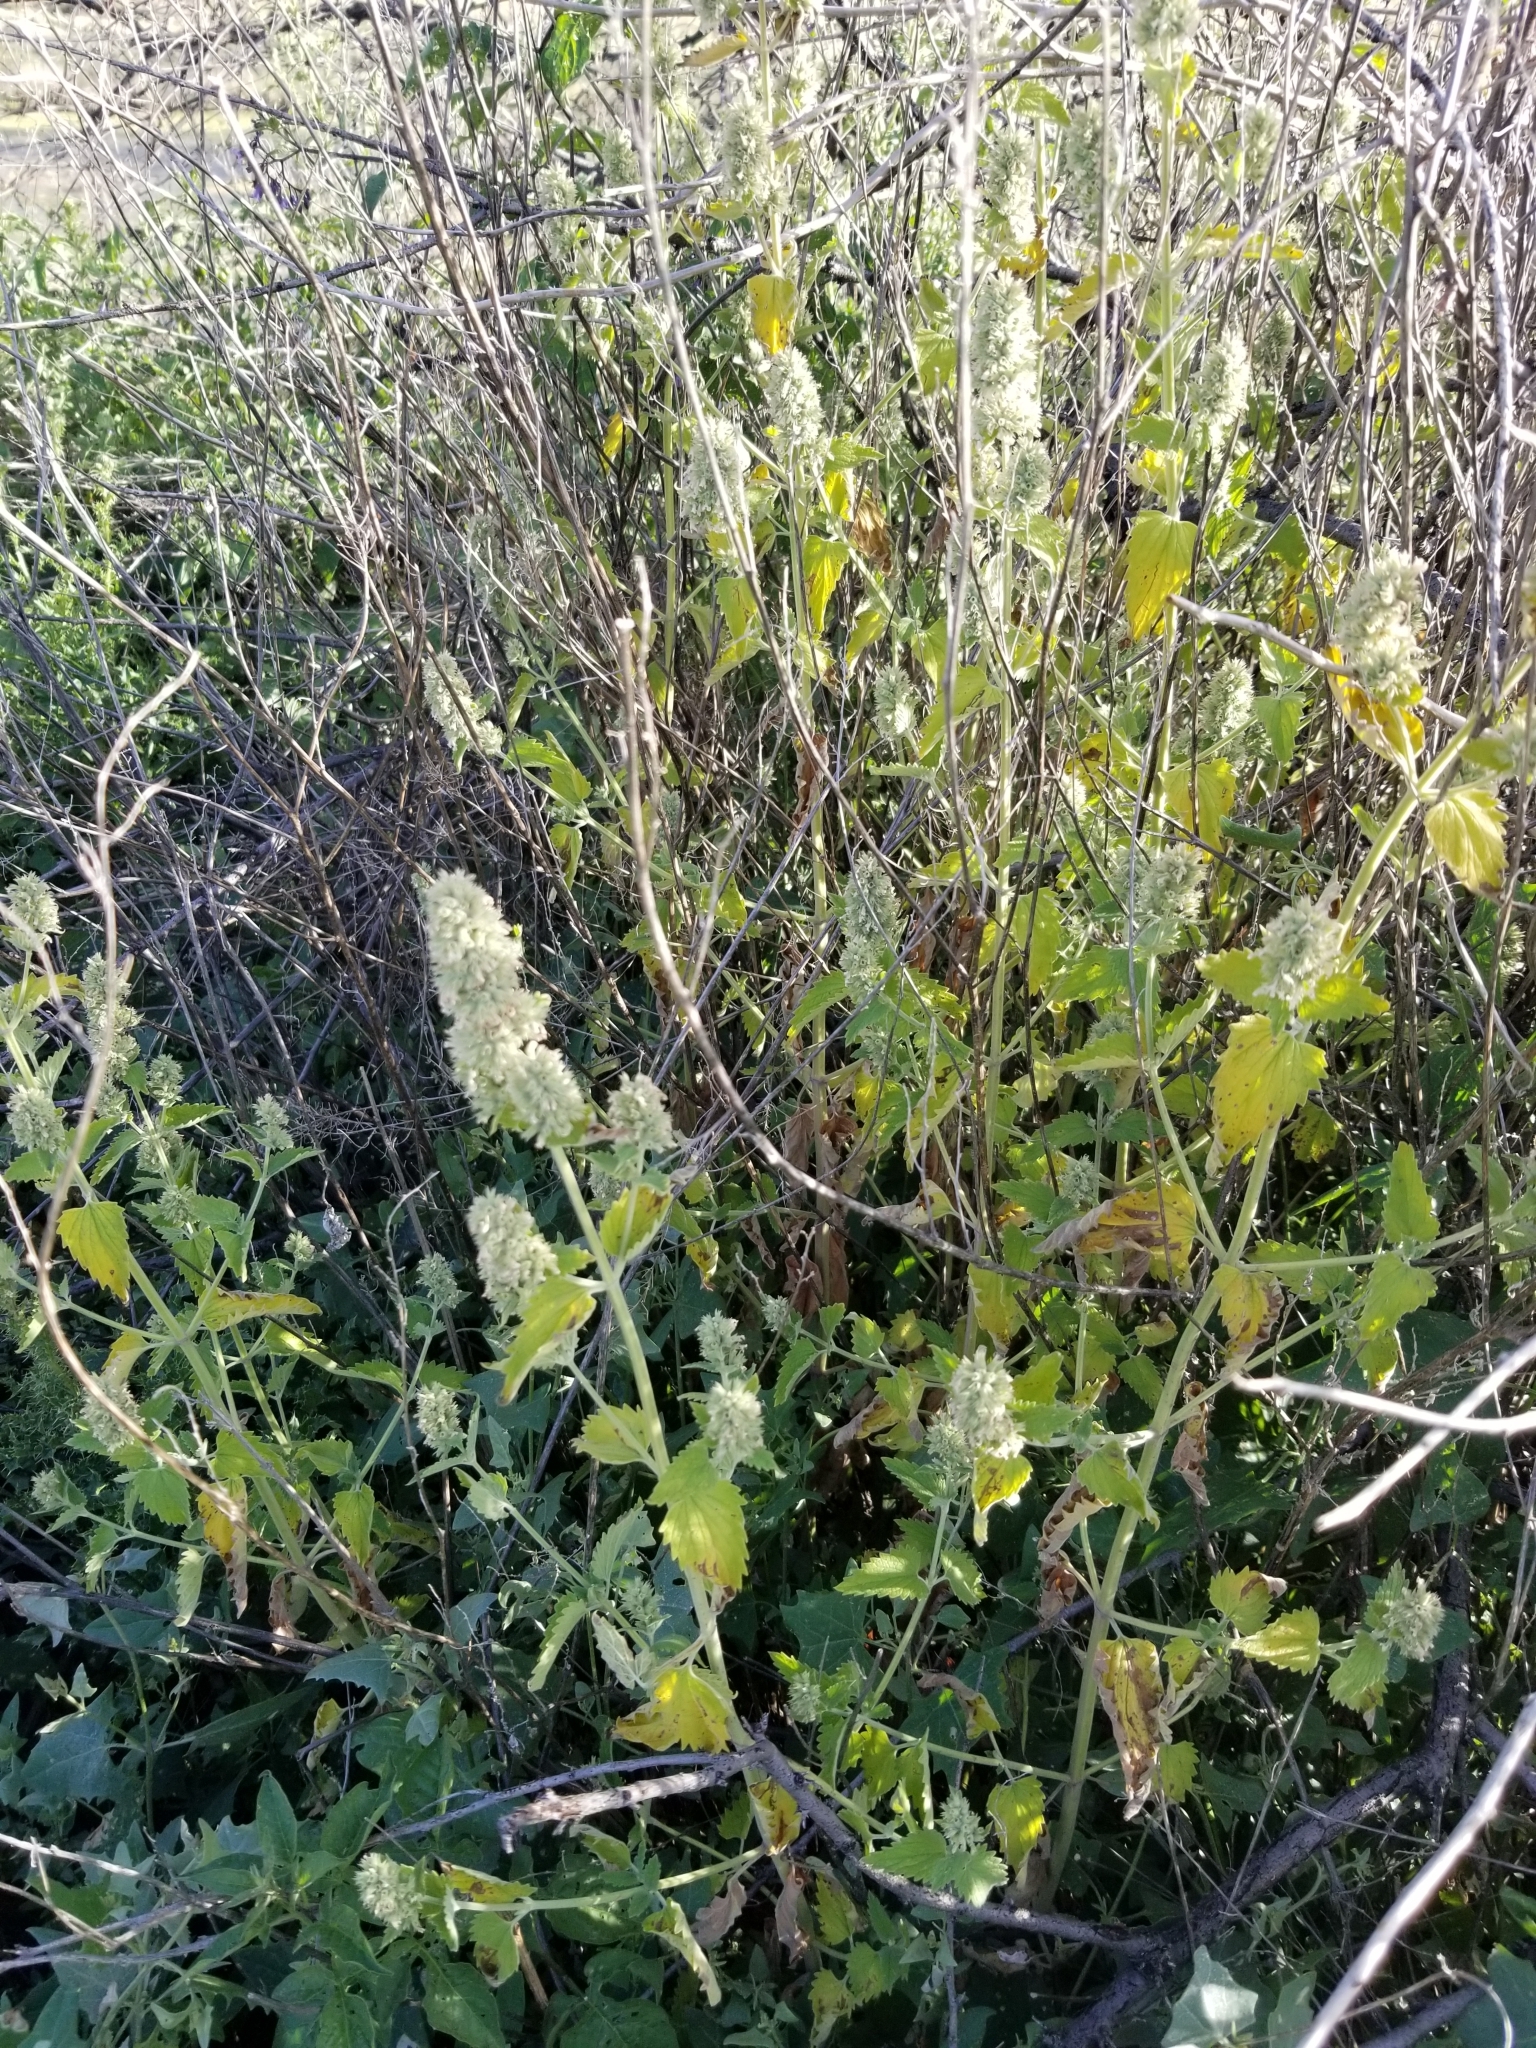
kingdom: Plantae
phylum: Tracheophyta
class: Magnoliopsida
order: Lamiales
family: Lamiaceae
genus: Nepeta
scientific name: Nepeta cataria
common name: Catnip
